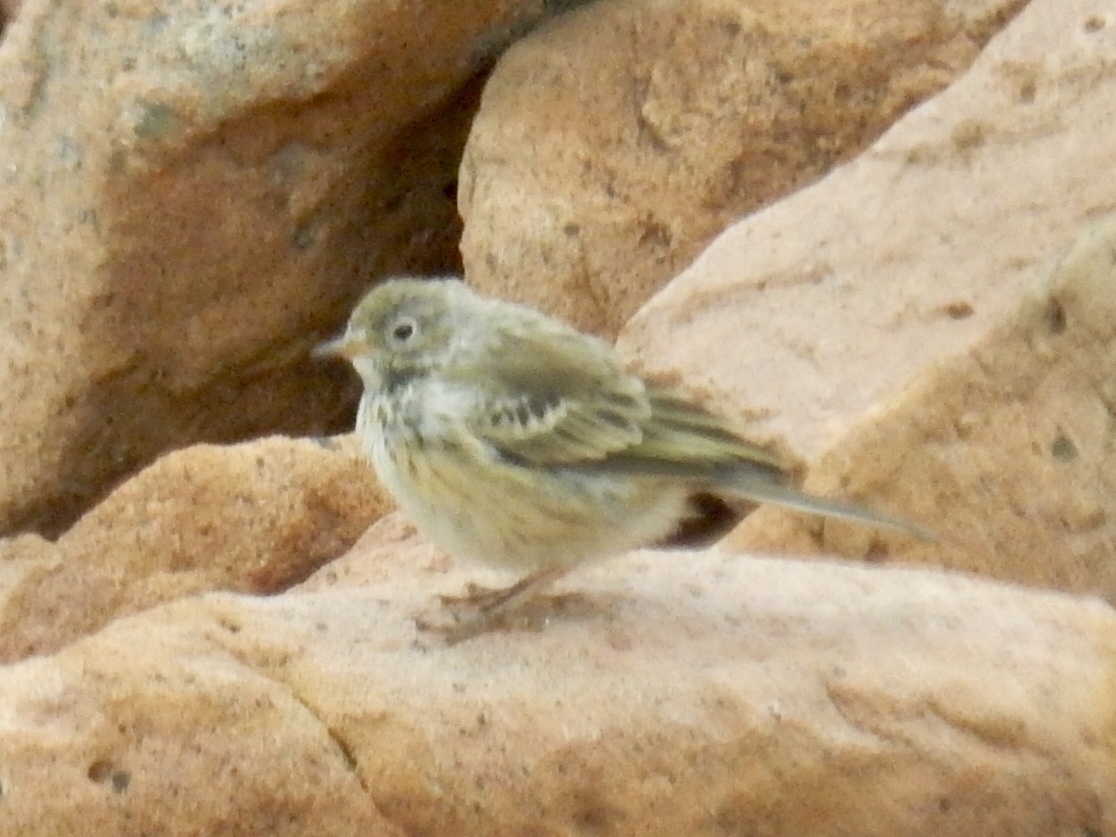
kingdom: Animalia
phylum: Chordata
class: Aves
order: Passeriformes
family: Motacillidae
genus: Anthus
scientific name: Anthus rubescens
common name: Buff-bellied pipit
